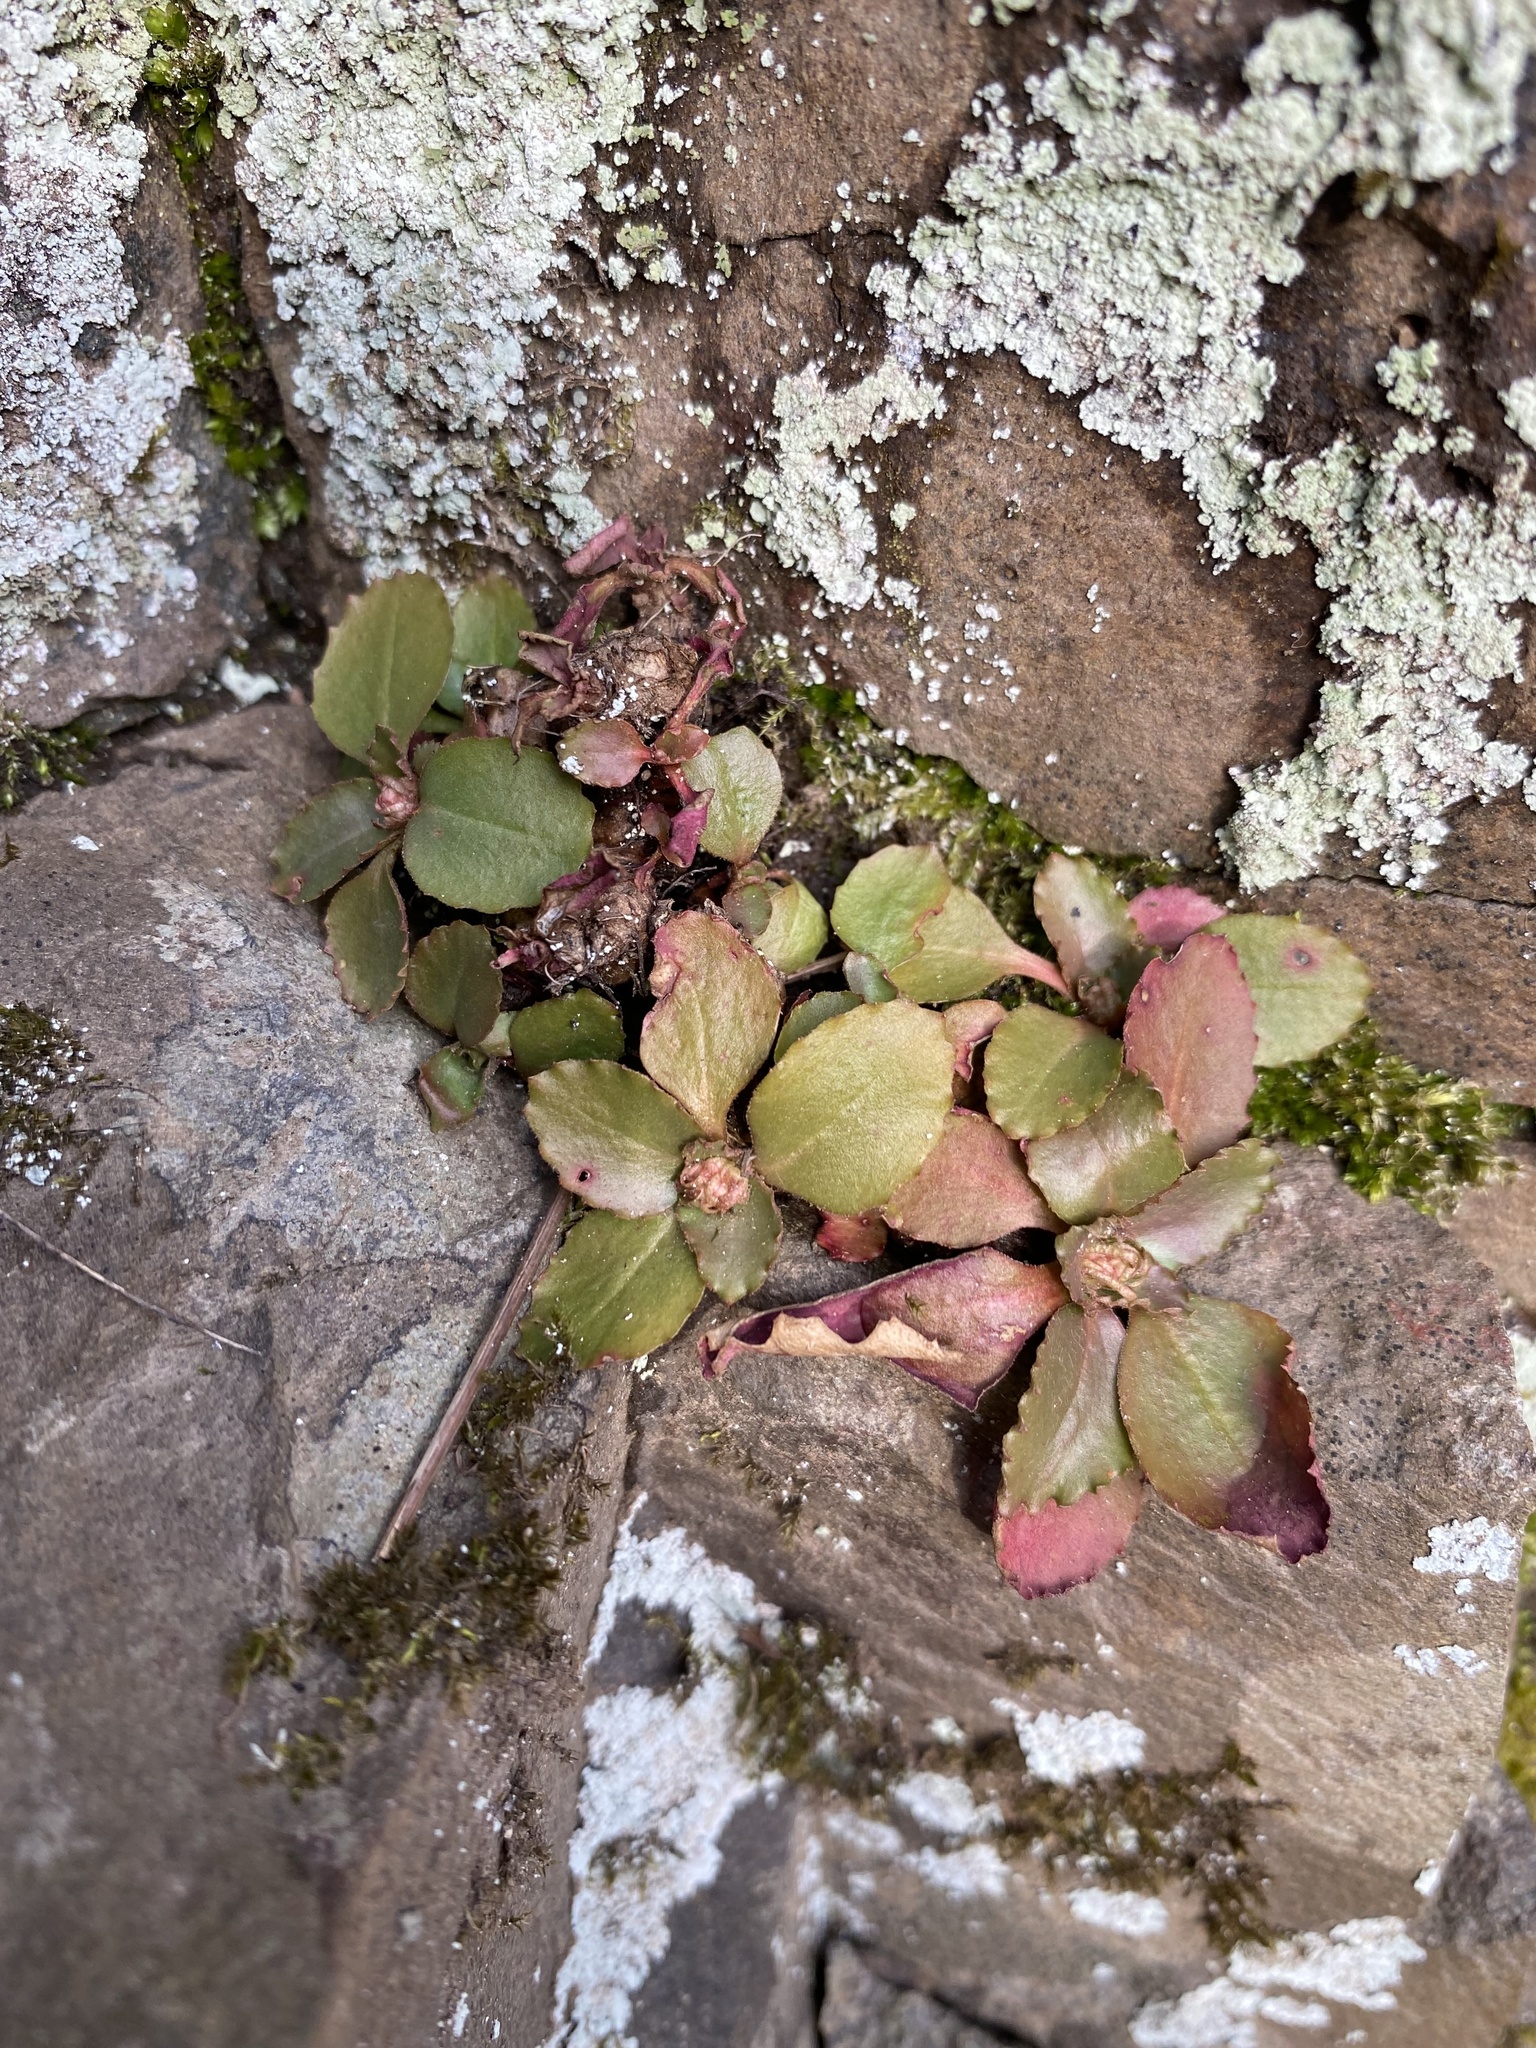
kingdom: Plantae
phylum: Tracheophyta
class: Magnoliopsida
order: Saxifragales
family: Saxifragaceae
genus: Micranthes
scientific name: Micranthes virginiensis
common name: Early saxifrage
